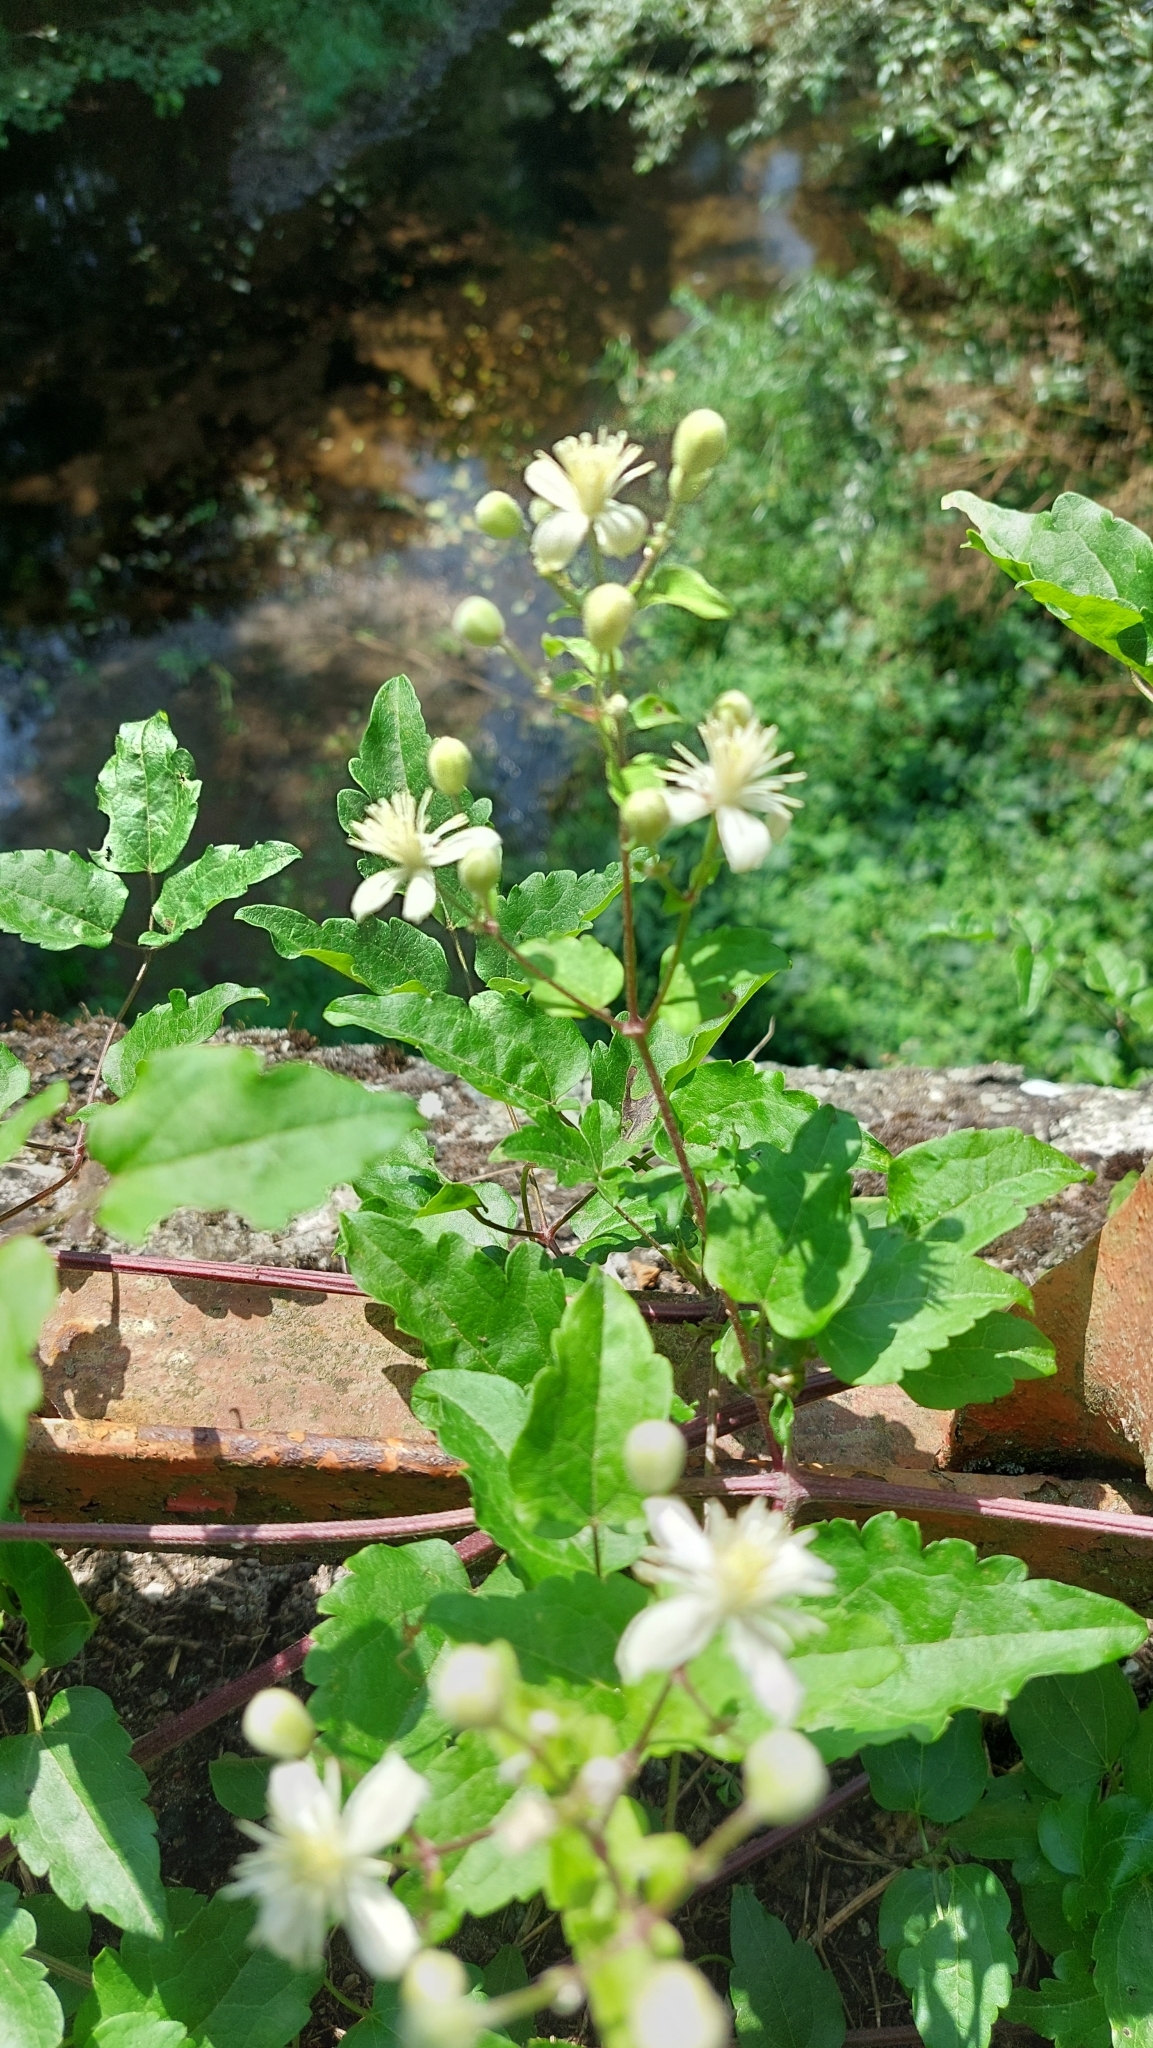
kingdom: Plantae
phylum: Tracheophyta
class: Magnoliopsida
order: Ranunculales
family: Ranunculaceae
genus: Clematis
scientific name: Clematis vitalba
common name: Evergreen clematis
